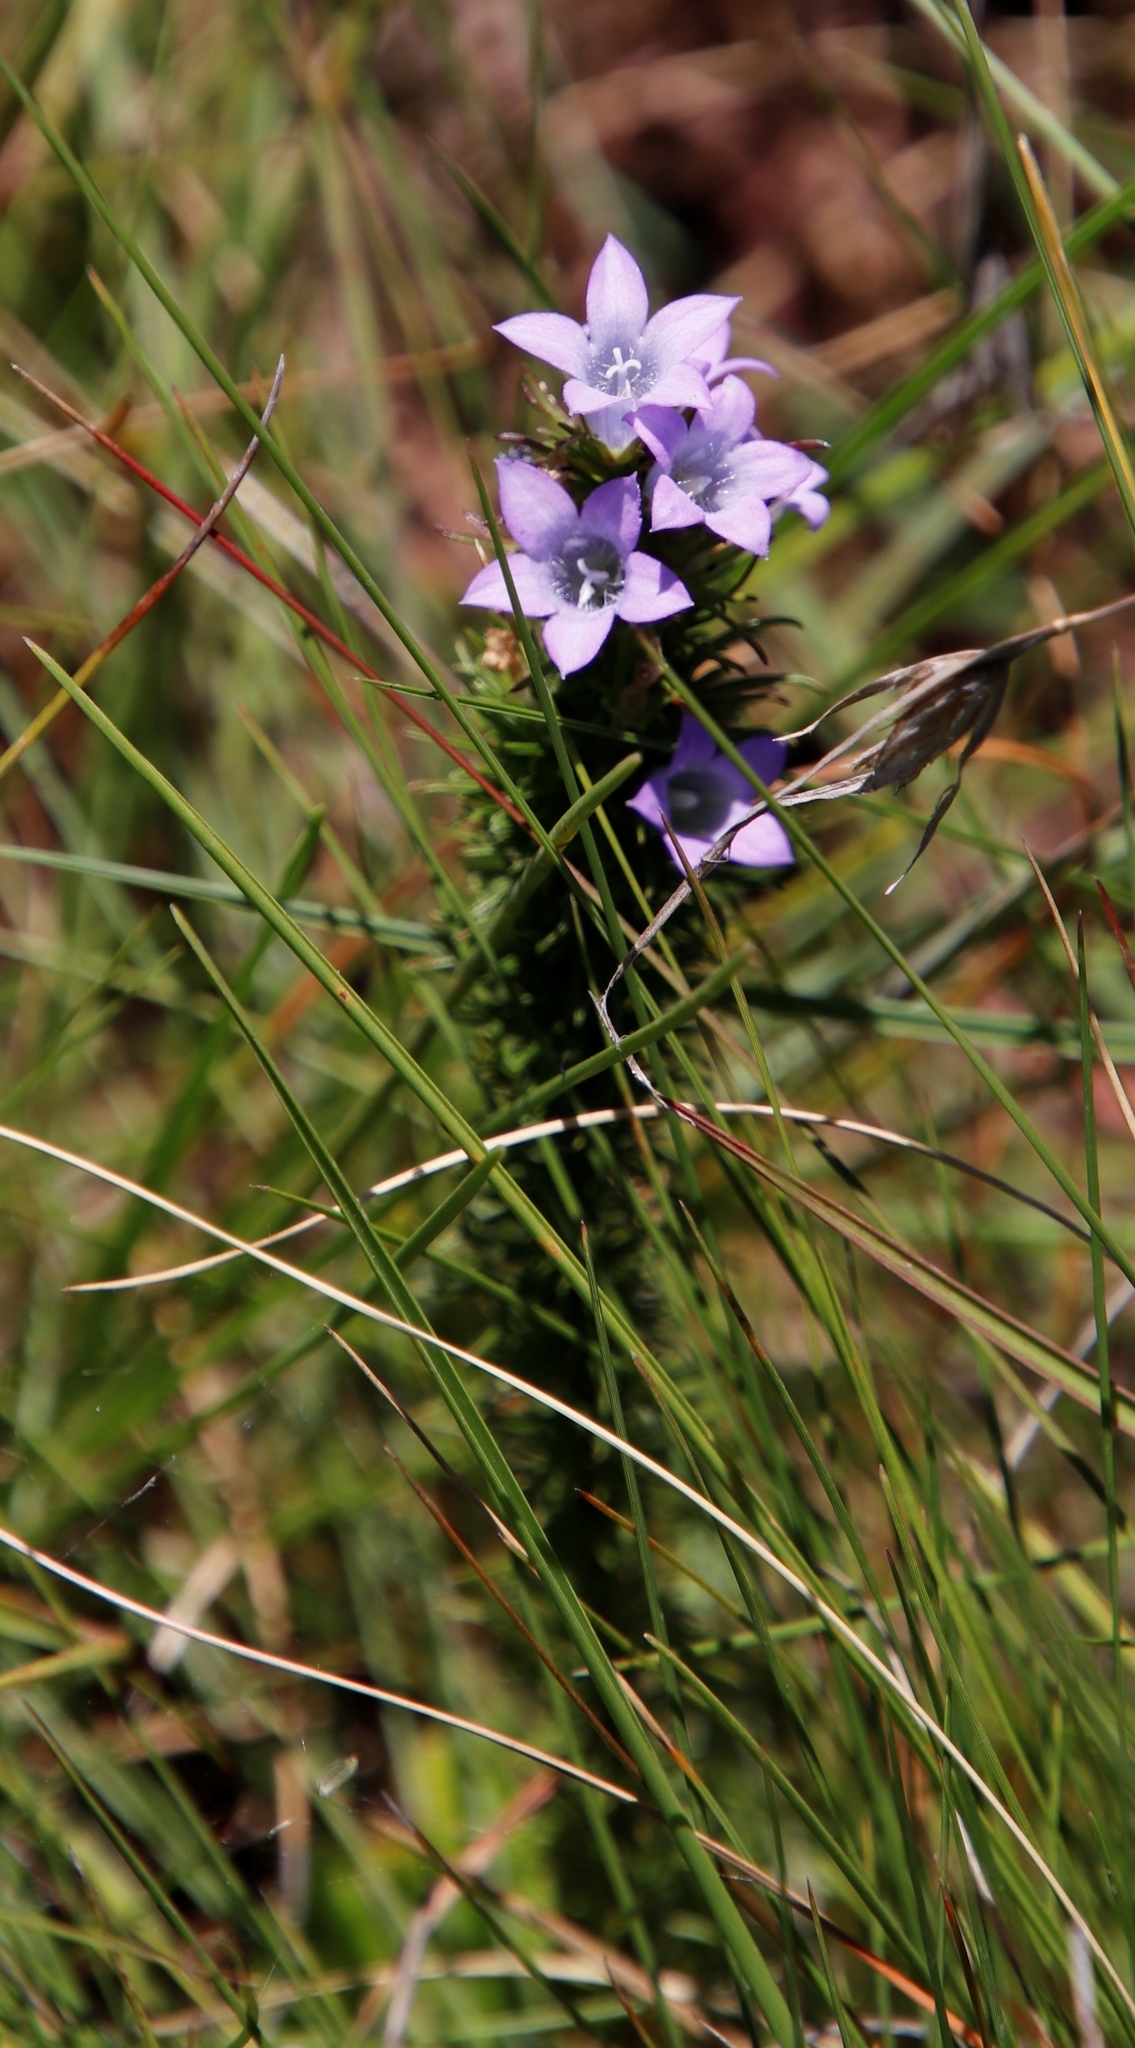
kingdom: Plantae
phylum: Tracheophyta
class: Magnoliopsida
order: Asterales
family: Campanulaceae
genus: Wahlenbergia
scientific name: Wahlenbergia fasciculata
